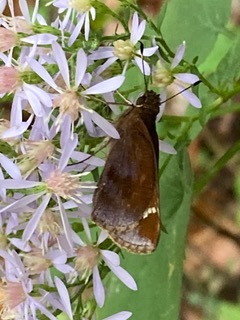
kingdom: Animalia
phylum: Arthropoda
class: Insecta
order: Lepidoptera
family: Hesperiidae
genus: Lerema
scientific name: Lerema accius
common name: Clouded skipper
